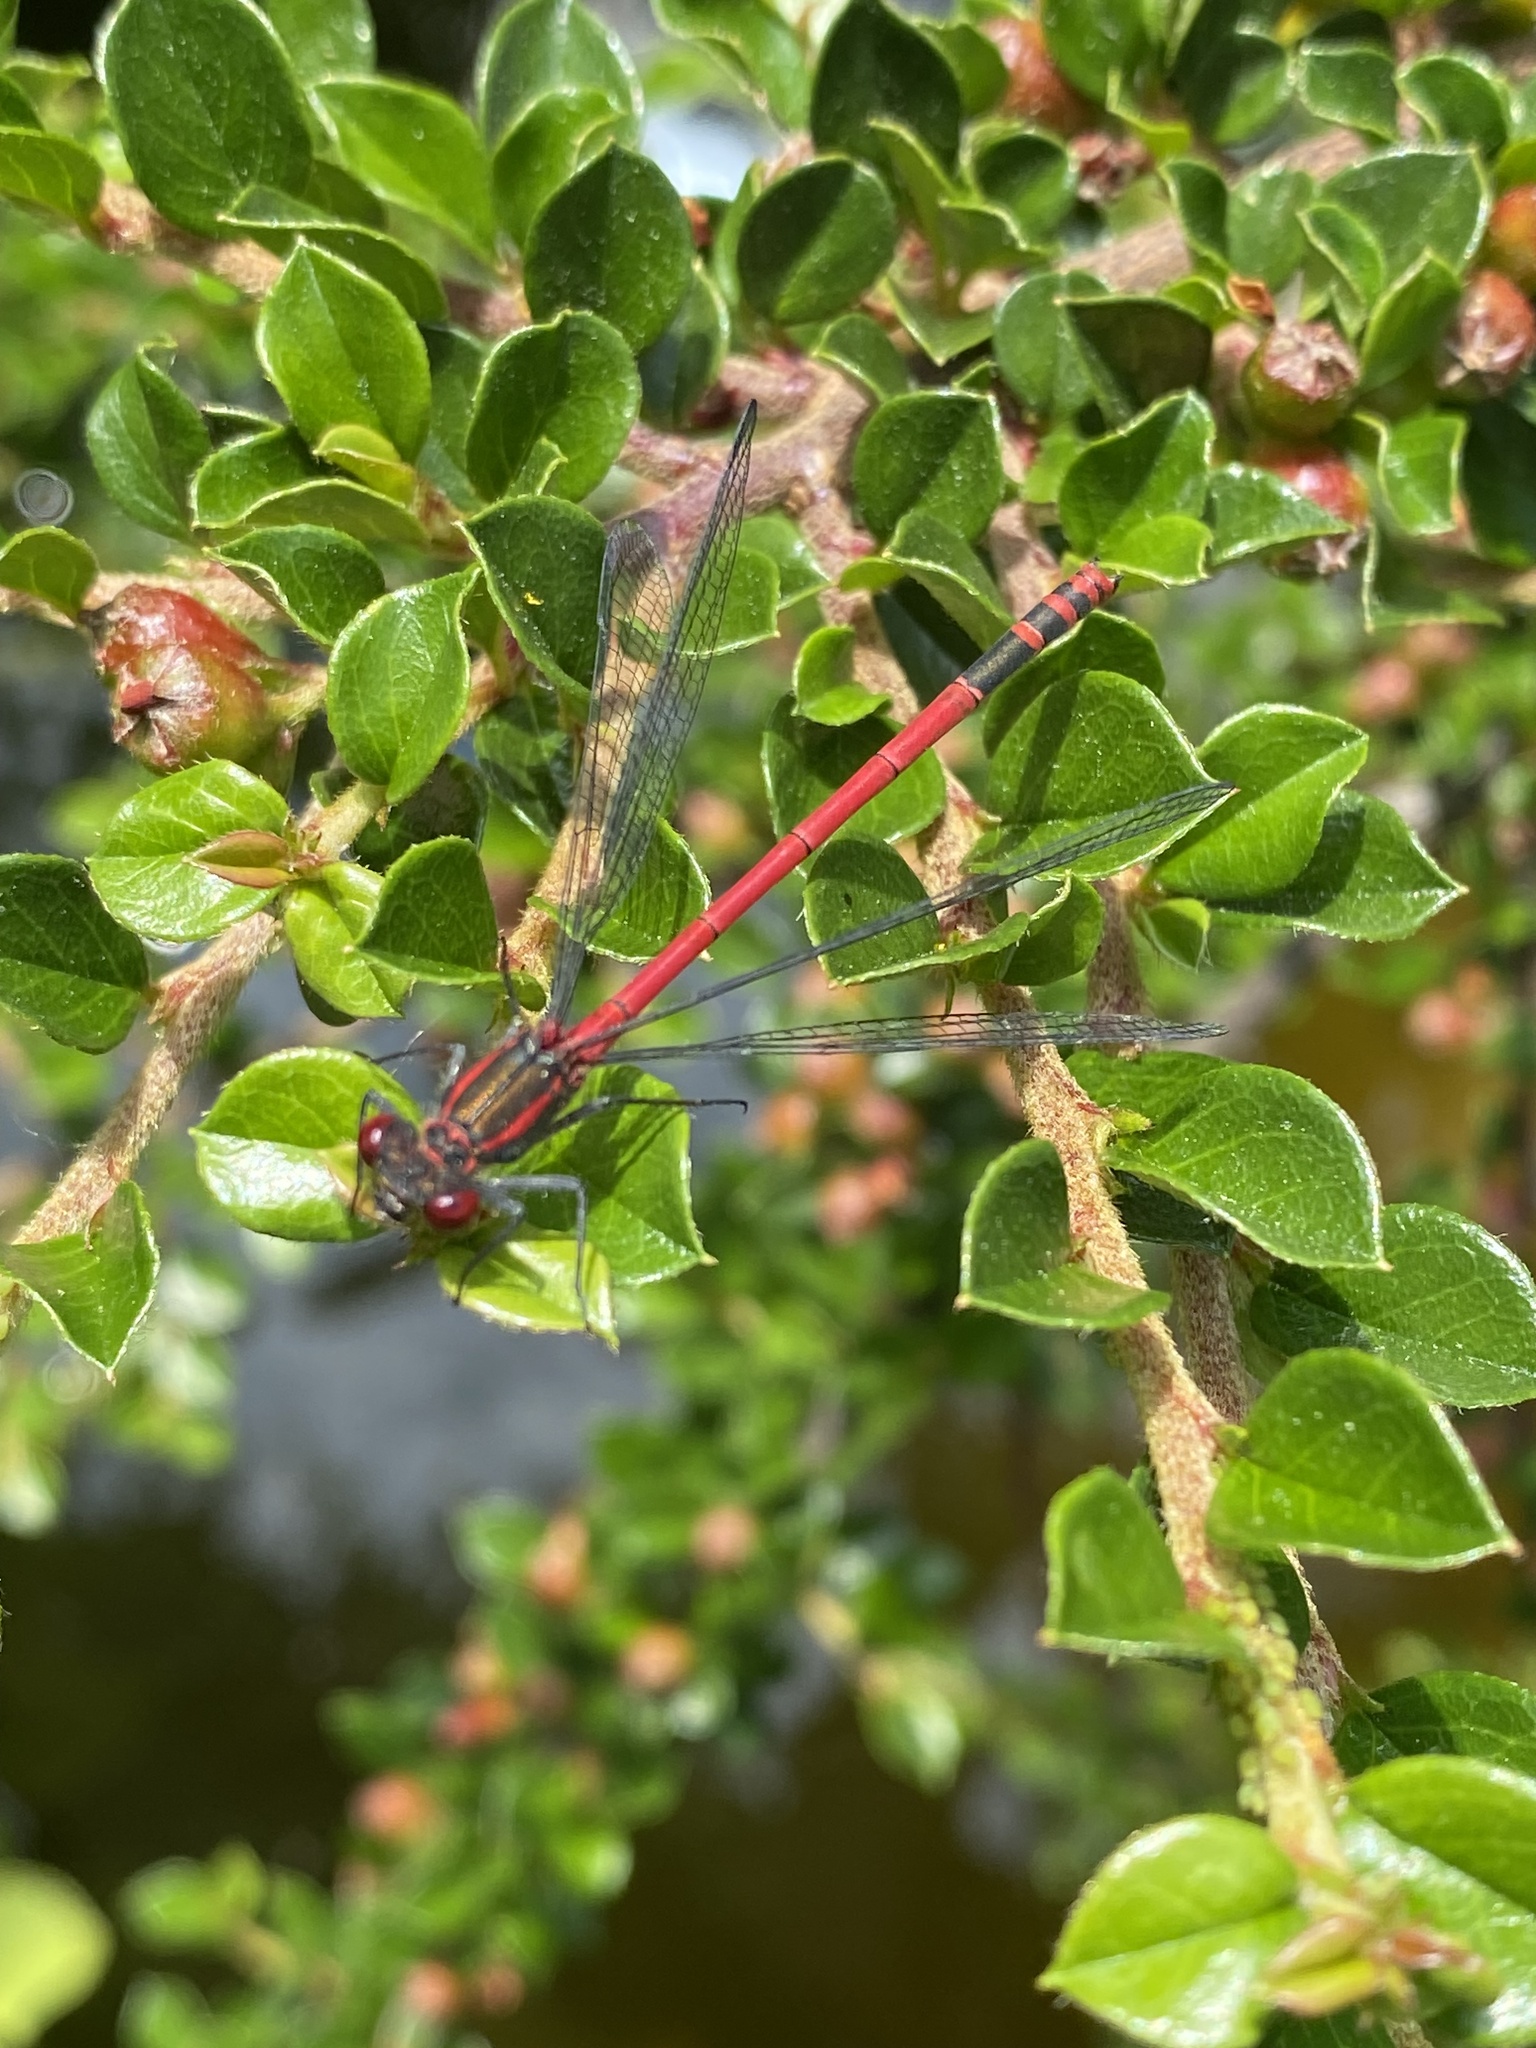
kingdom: Animalia
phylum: Arthropoda
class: Insecta
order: Odonata
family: Coenagrionidae
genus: Pyrrhosoma
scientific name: Pyrrhosoma nymphula
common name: Large red damsel
